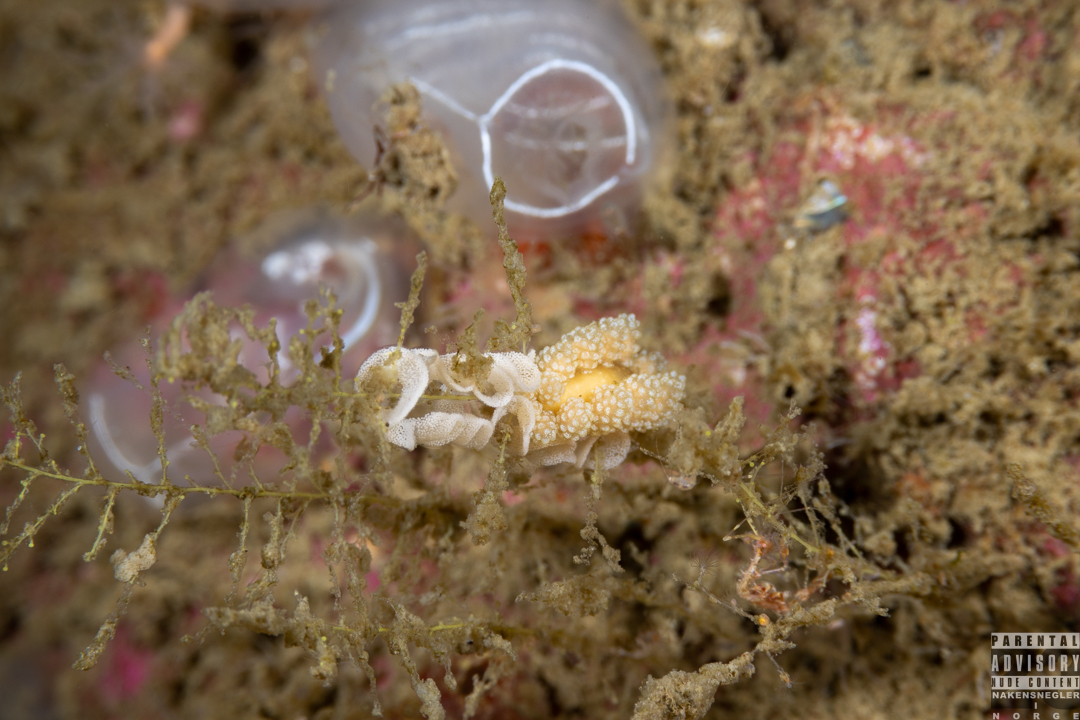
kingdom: Animalia
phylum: Mollusca
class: Gastropoda
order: Nudibranchia
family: Dotidae
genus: Doto
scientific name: Doto fragilis
